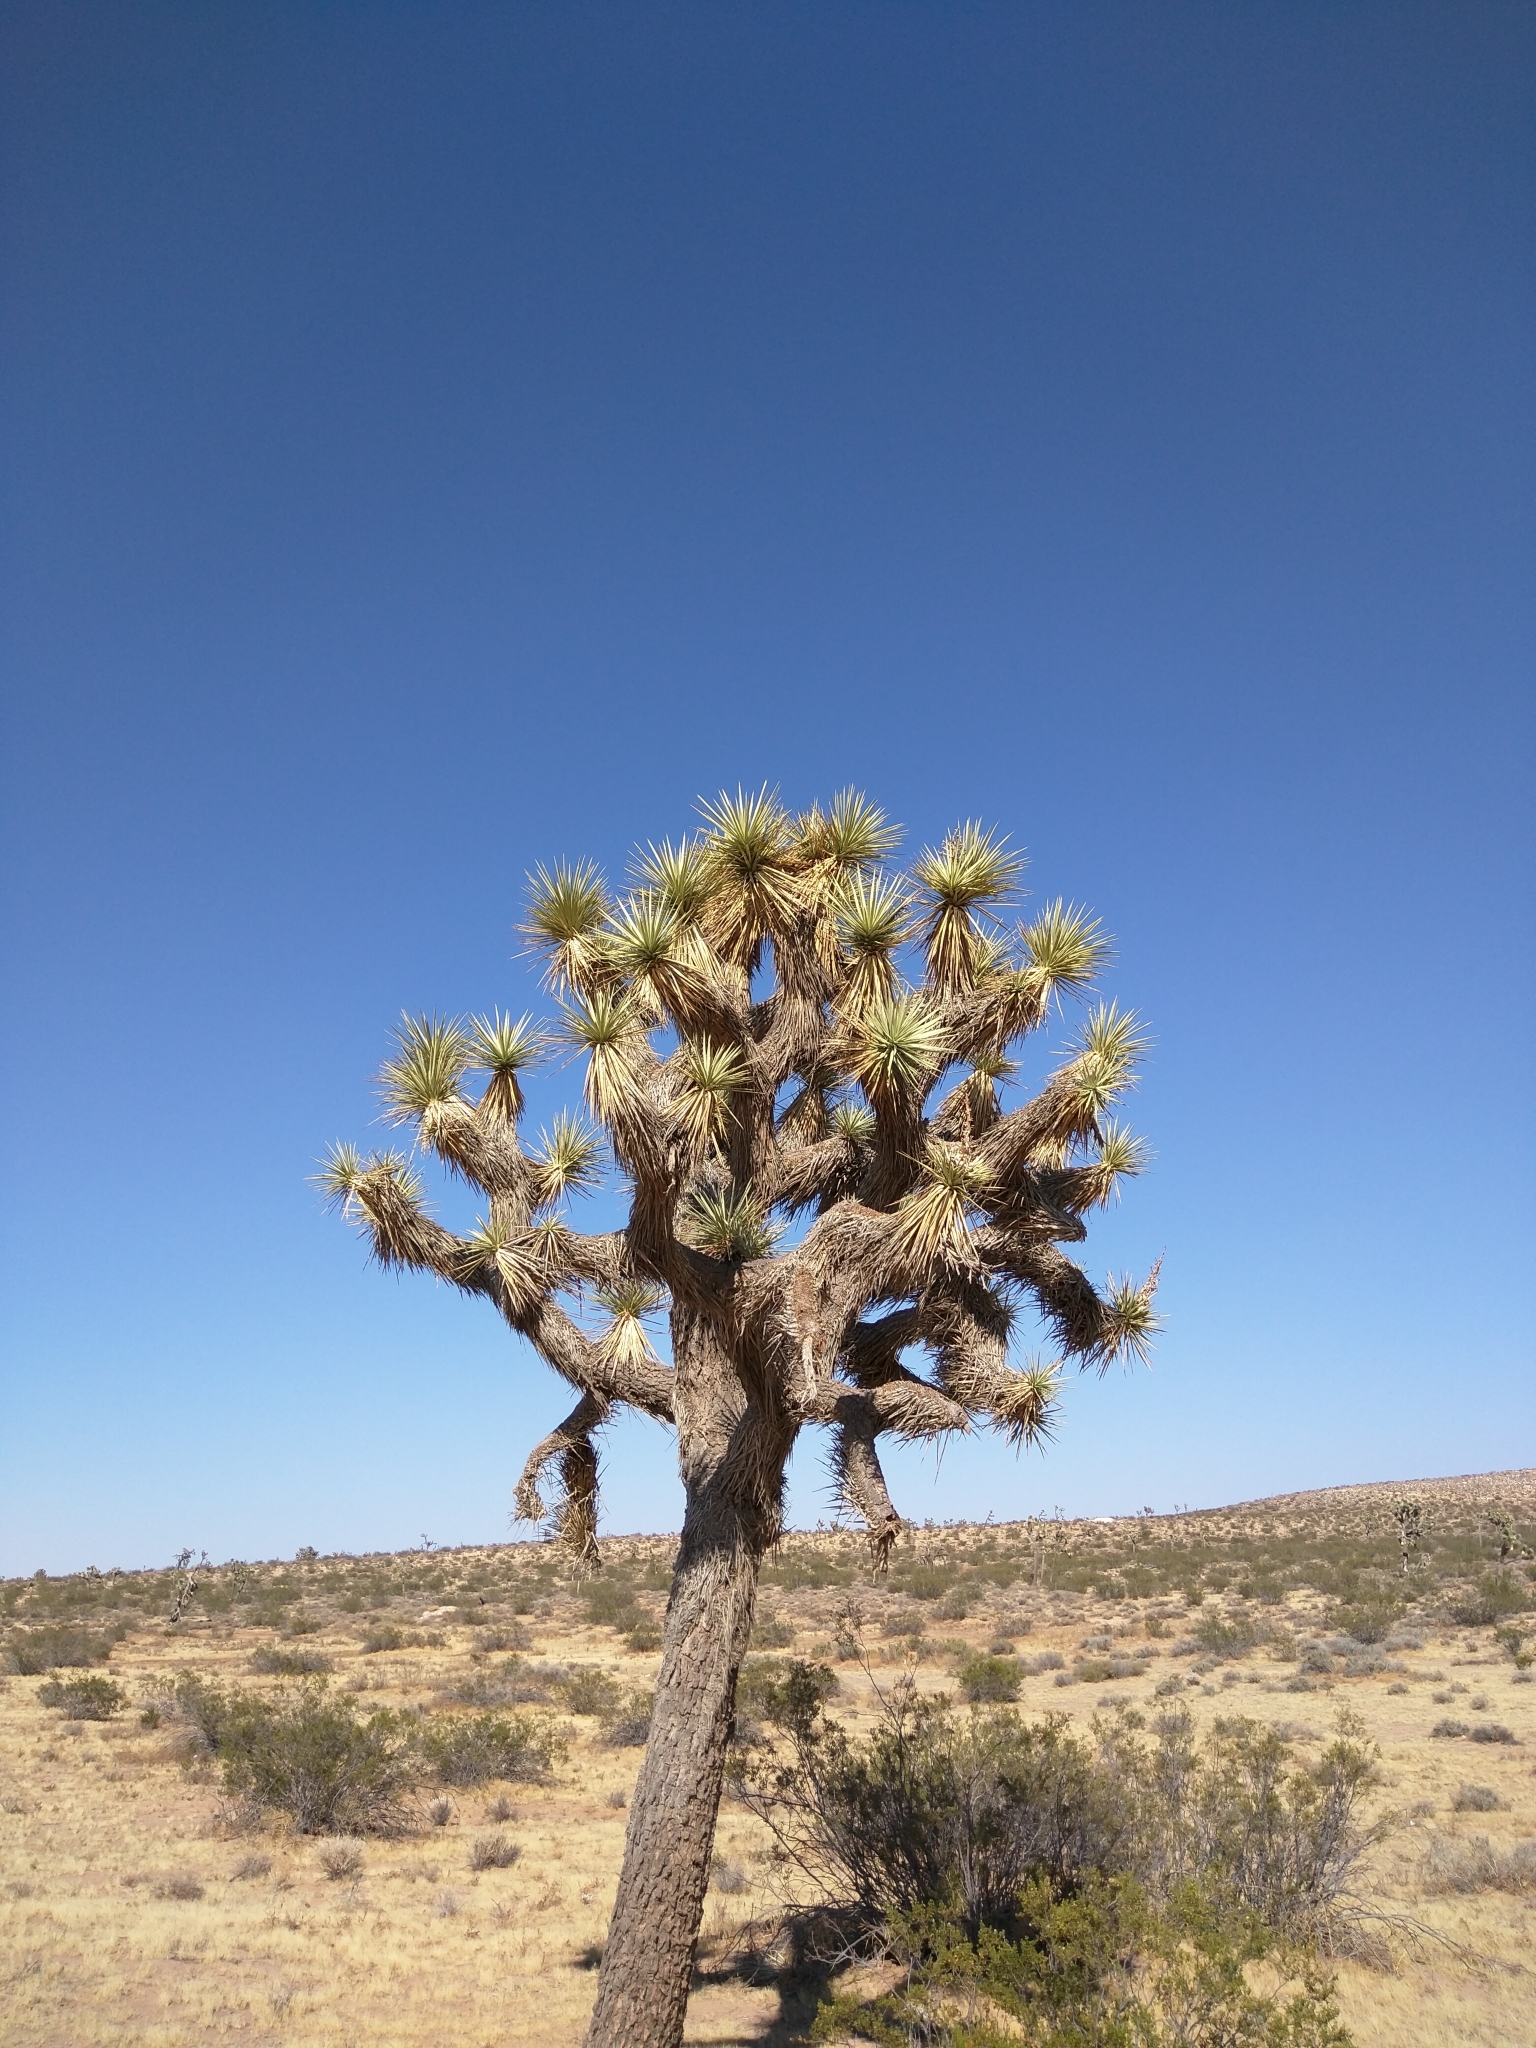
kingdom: Plantae
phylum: Tracheophyta
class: Liliopsida
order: Asparagales
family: Asparagaceae
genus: Yucca
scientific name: Yucca brevifolia
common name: Joshua tree
